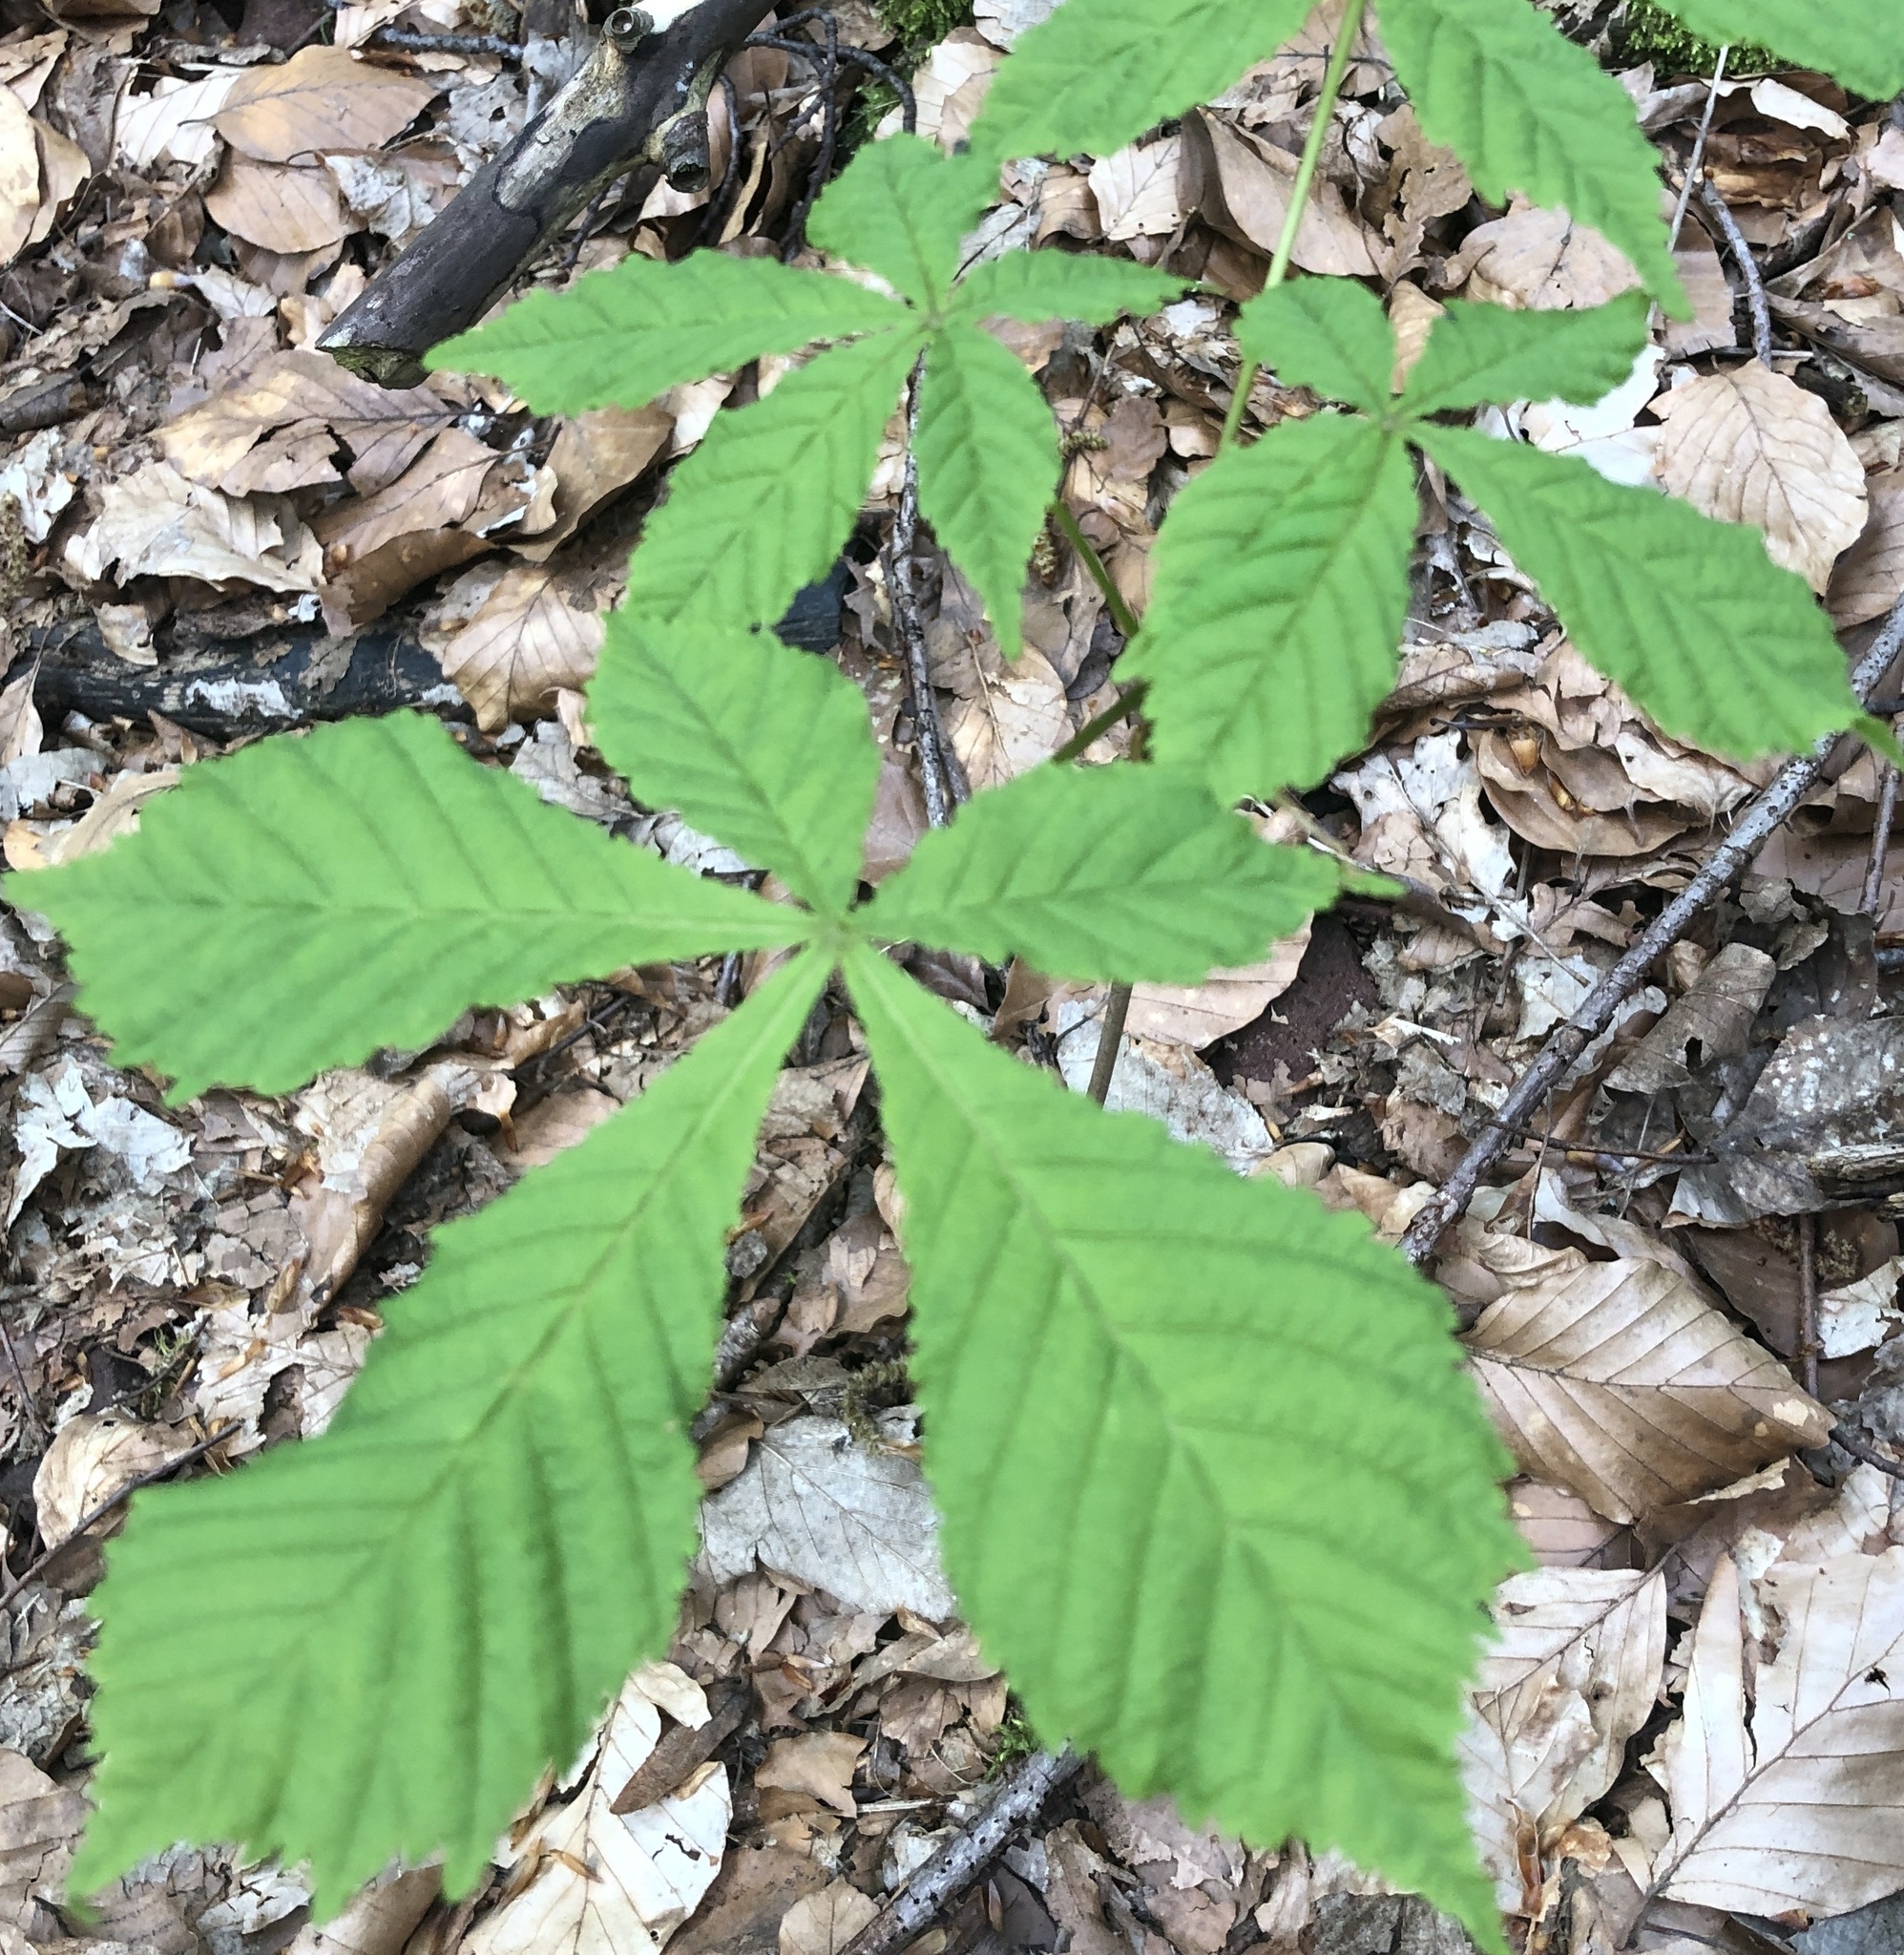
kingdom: Plantae
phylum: Tracheophyta
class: Magnoliopsida
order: Sapindales
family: Sapindaceae
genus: Aesculus
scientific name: Aesculus hippocastanum
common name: Horse-chestnut
